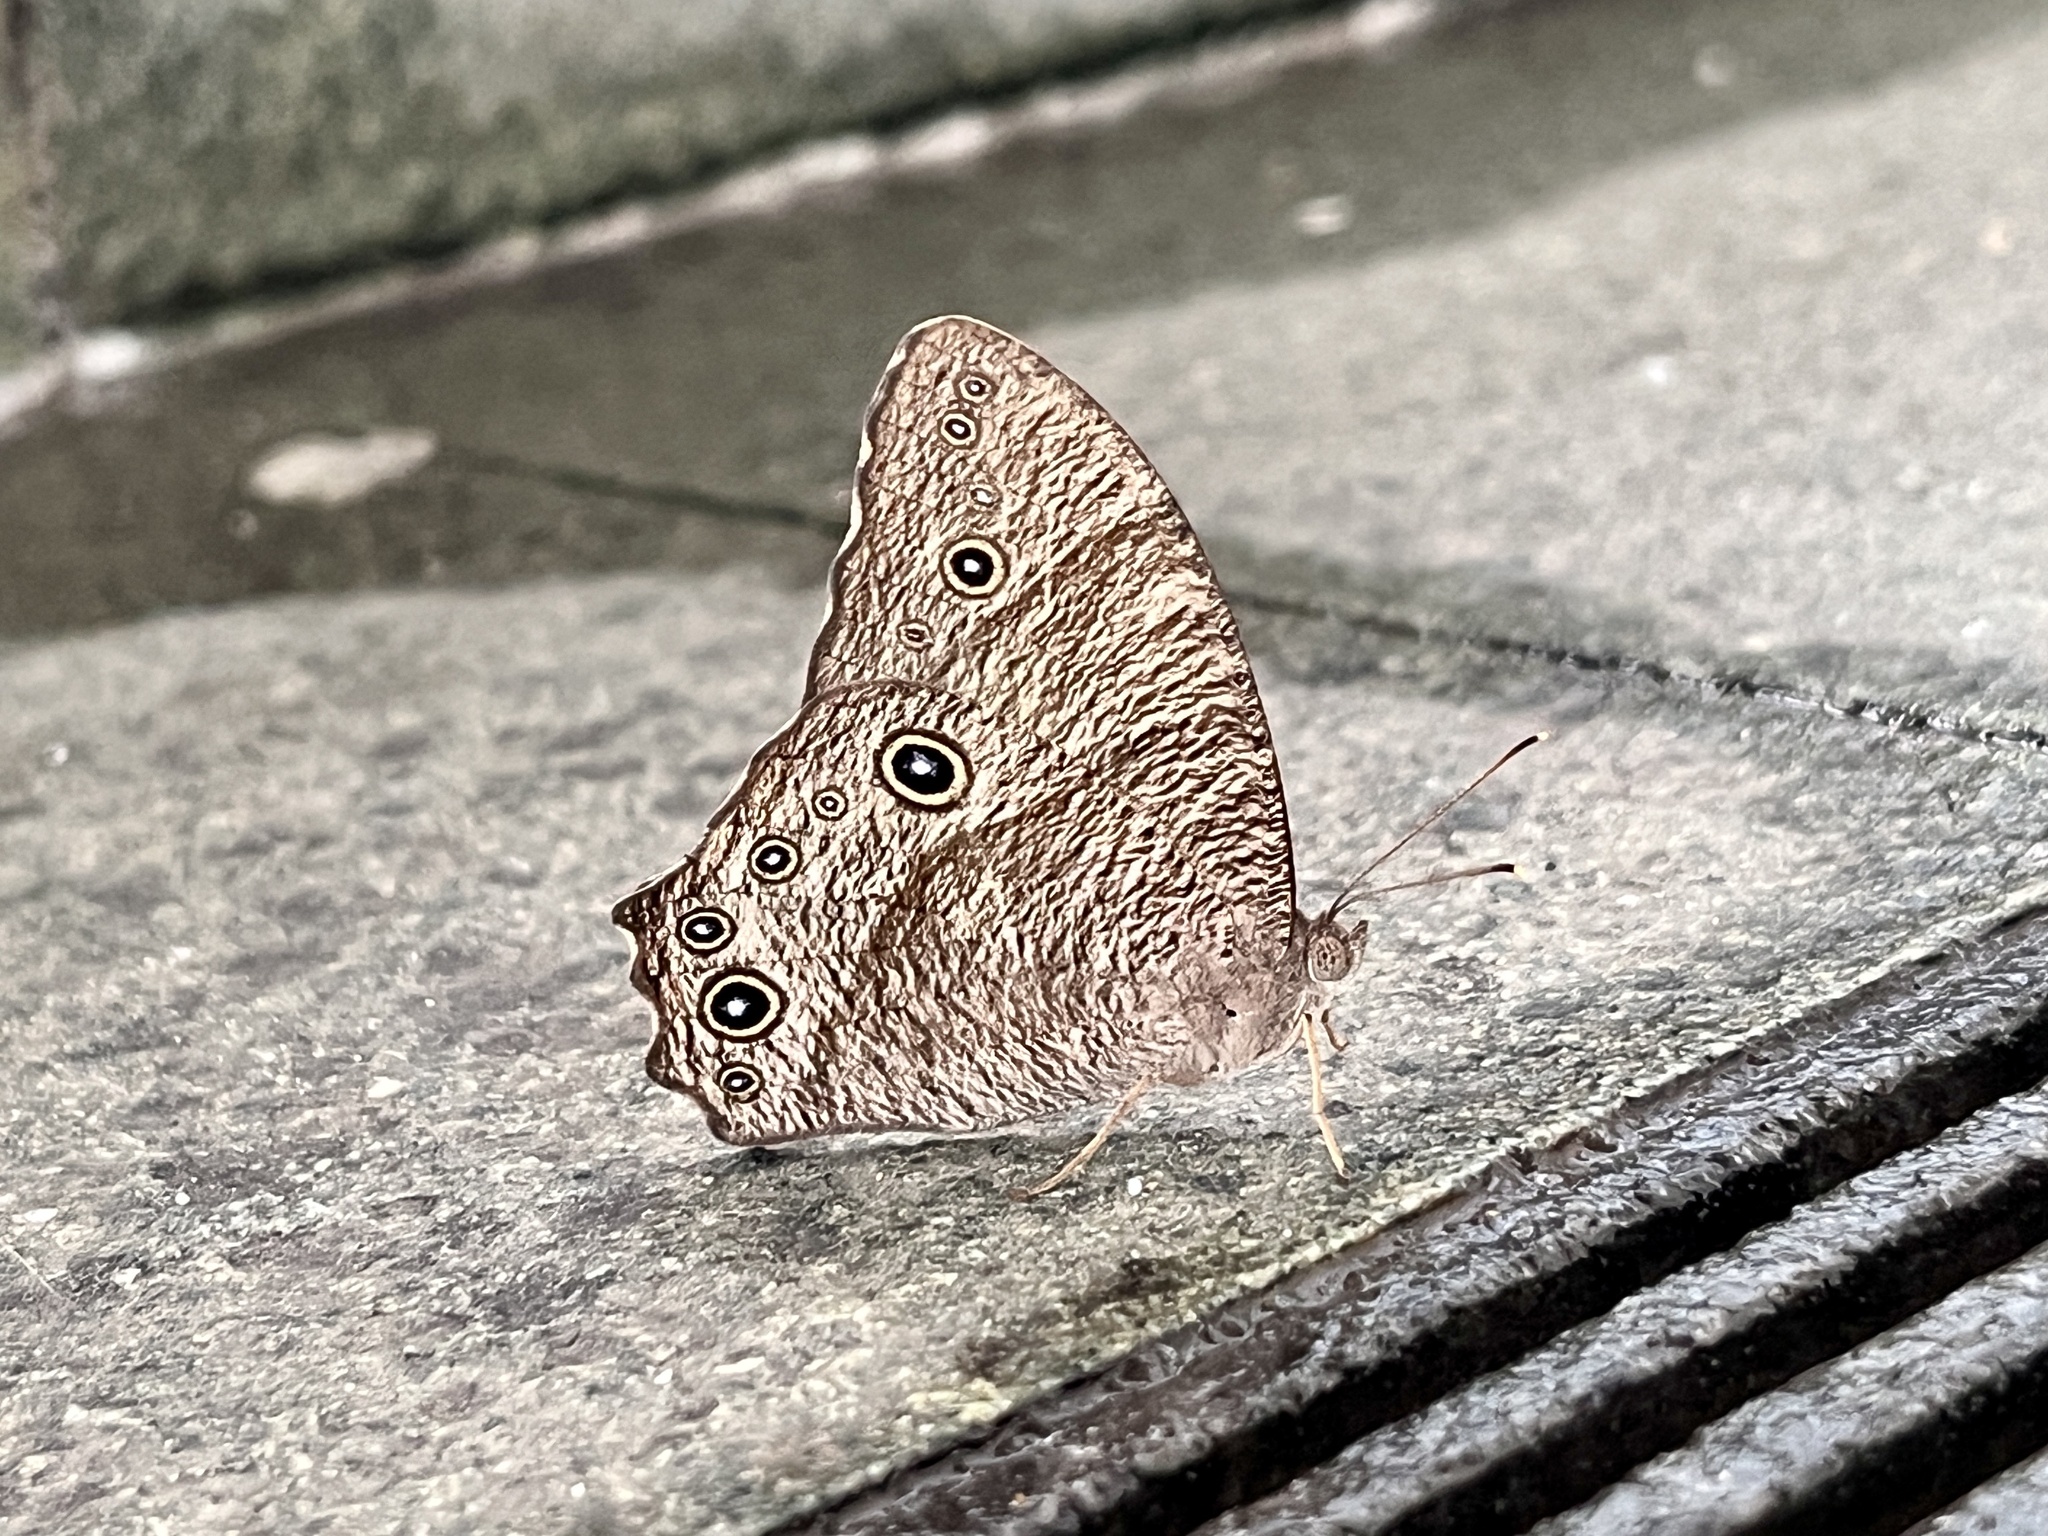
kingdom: Animalia
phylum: Arthropoda
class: Insecta
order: Lepidoptera
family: Nymphalidae
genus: Melanitis
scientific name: Melanitis leda
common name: Twilight brown
